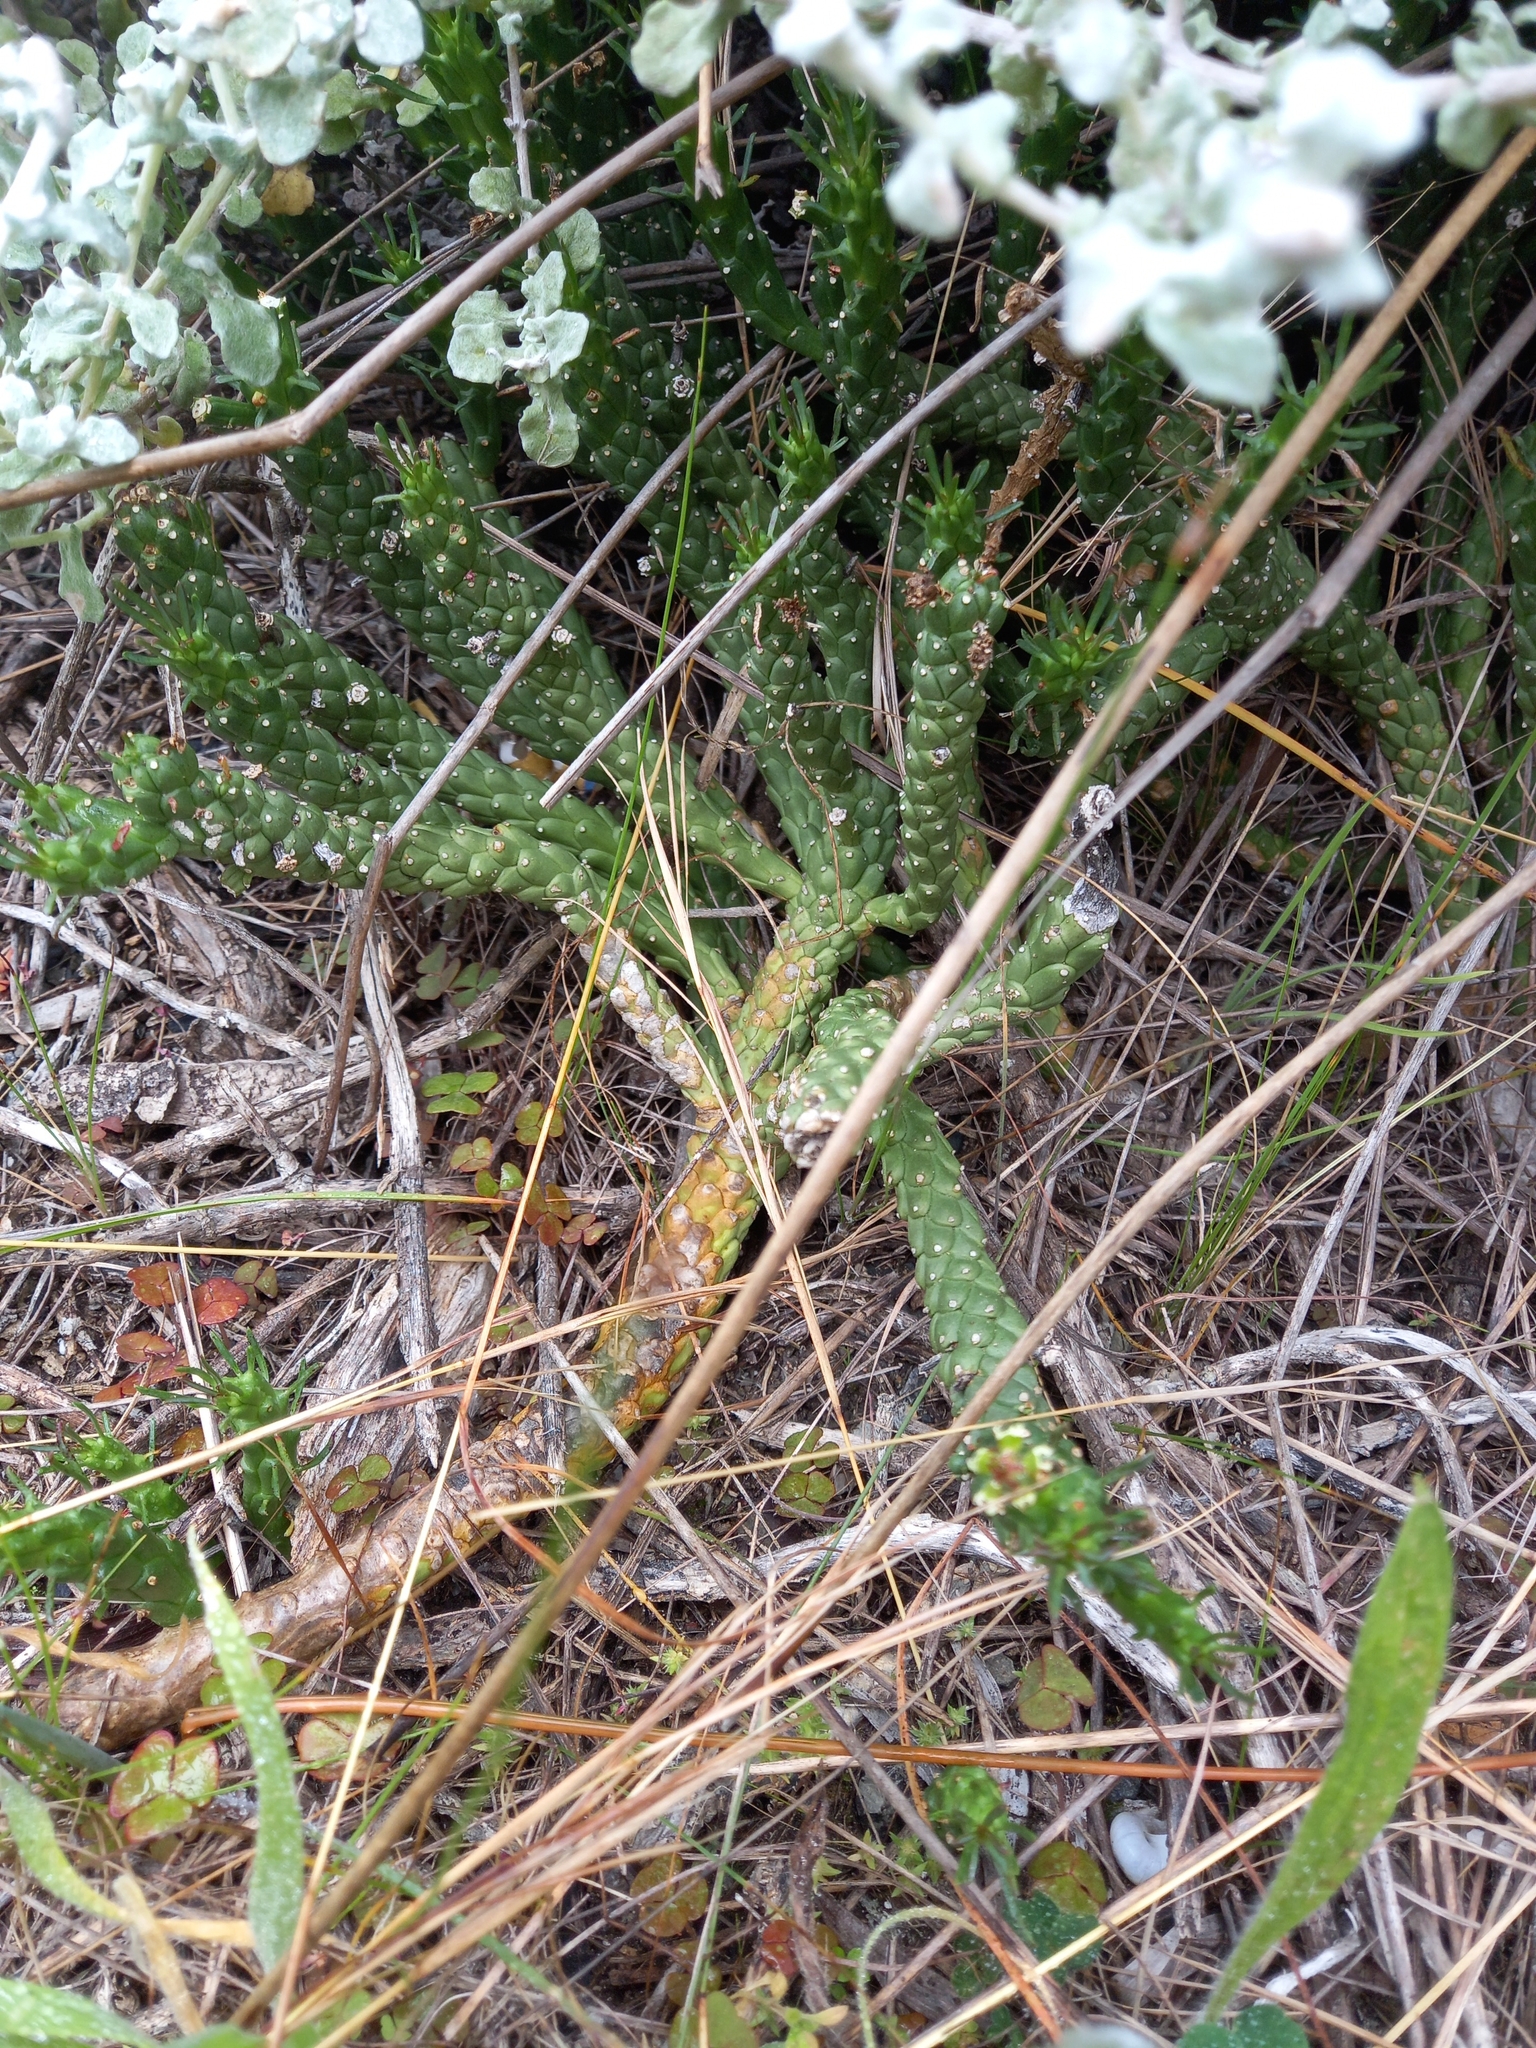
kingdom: Plantae
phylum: Tracheophyta
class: Magnoliopsida
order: Malpighiales
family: Euphorbiaceae
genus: Euphorbia
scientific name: Euphorbia caput-medusae
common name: Medusa's-head
